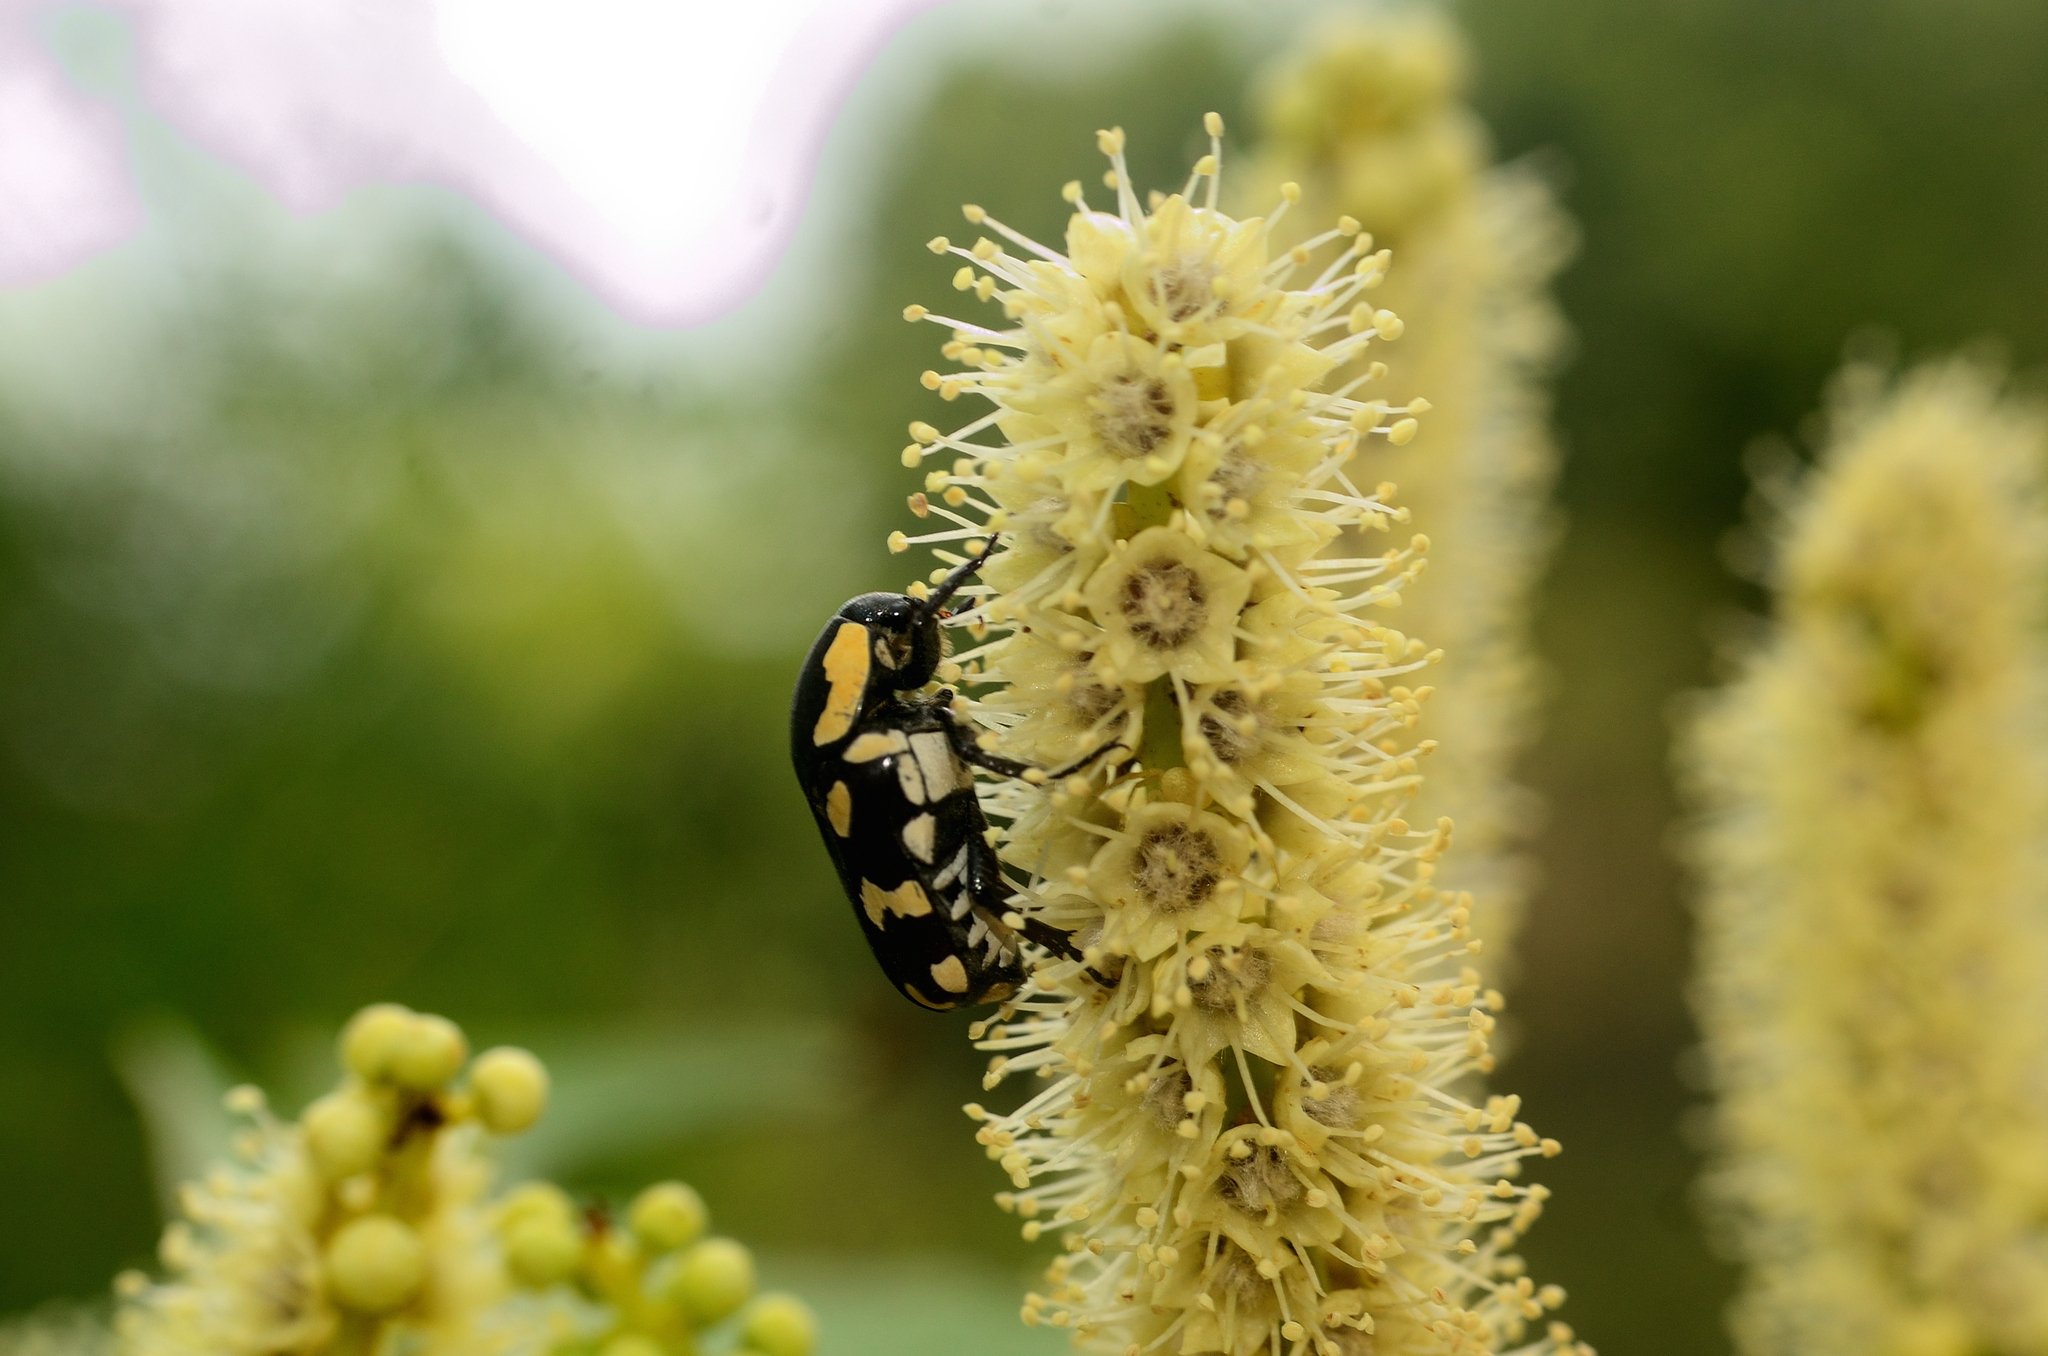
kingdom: Animalia
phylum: Arthropoda
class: Insecta
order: Coleoptera
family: Scarabaeidae
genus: Clinteria
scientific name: Clinteria klugi
